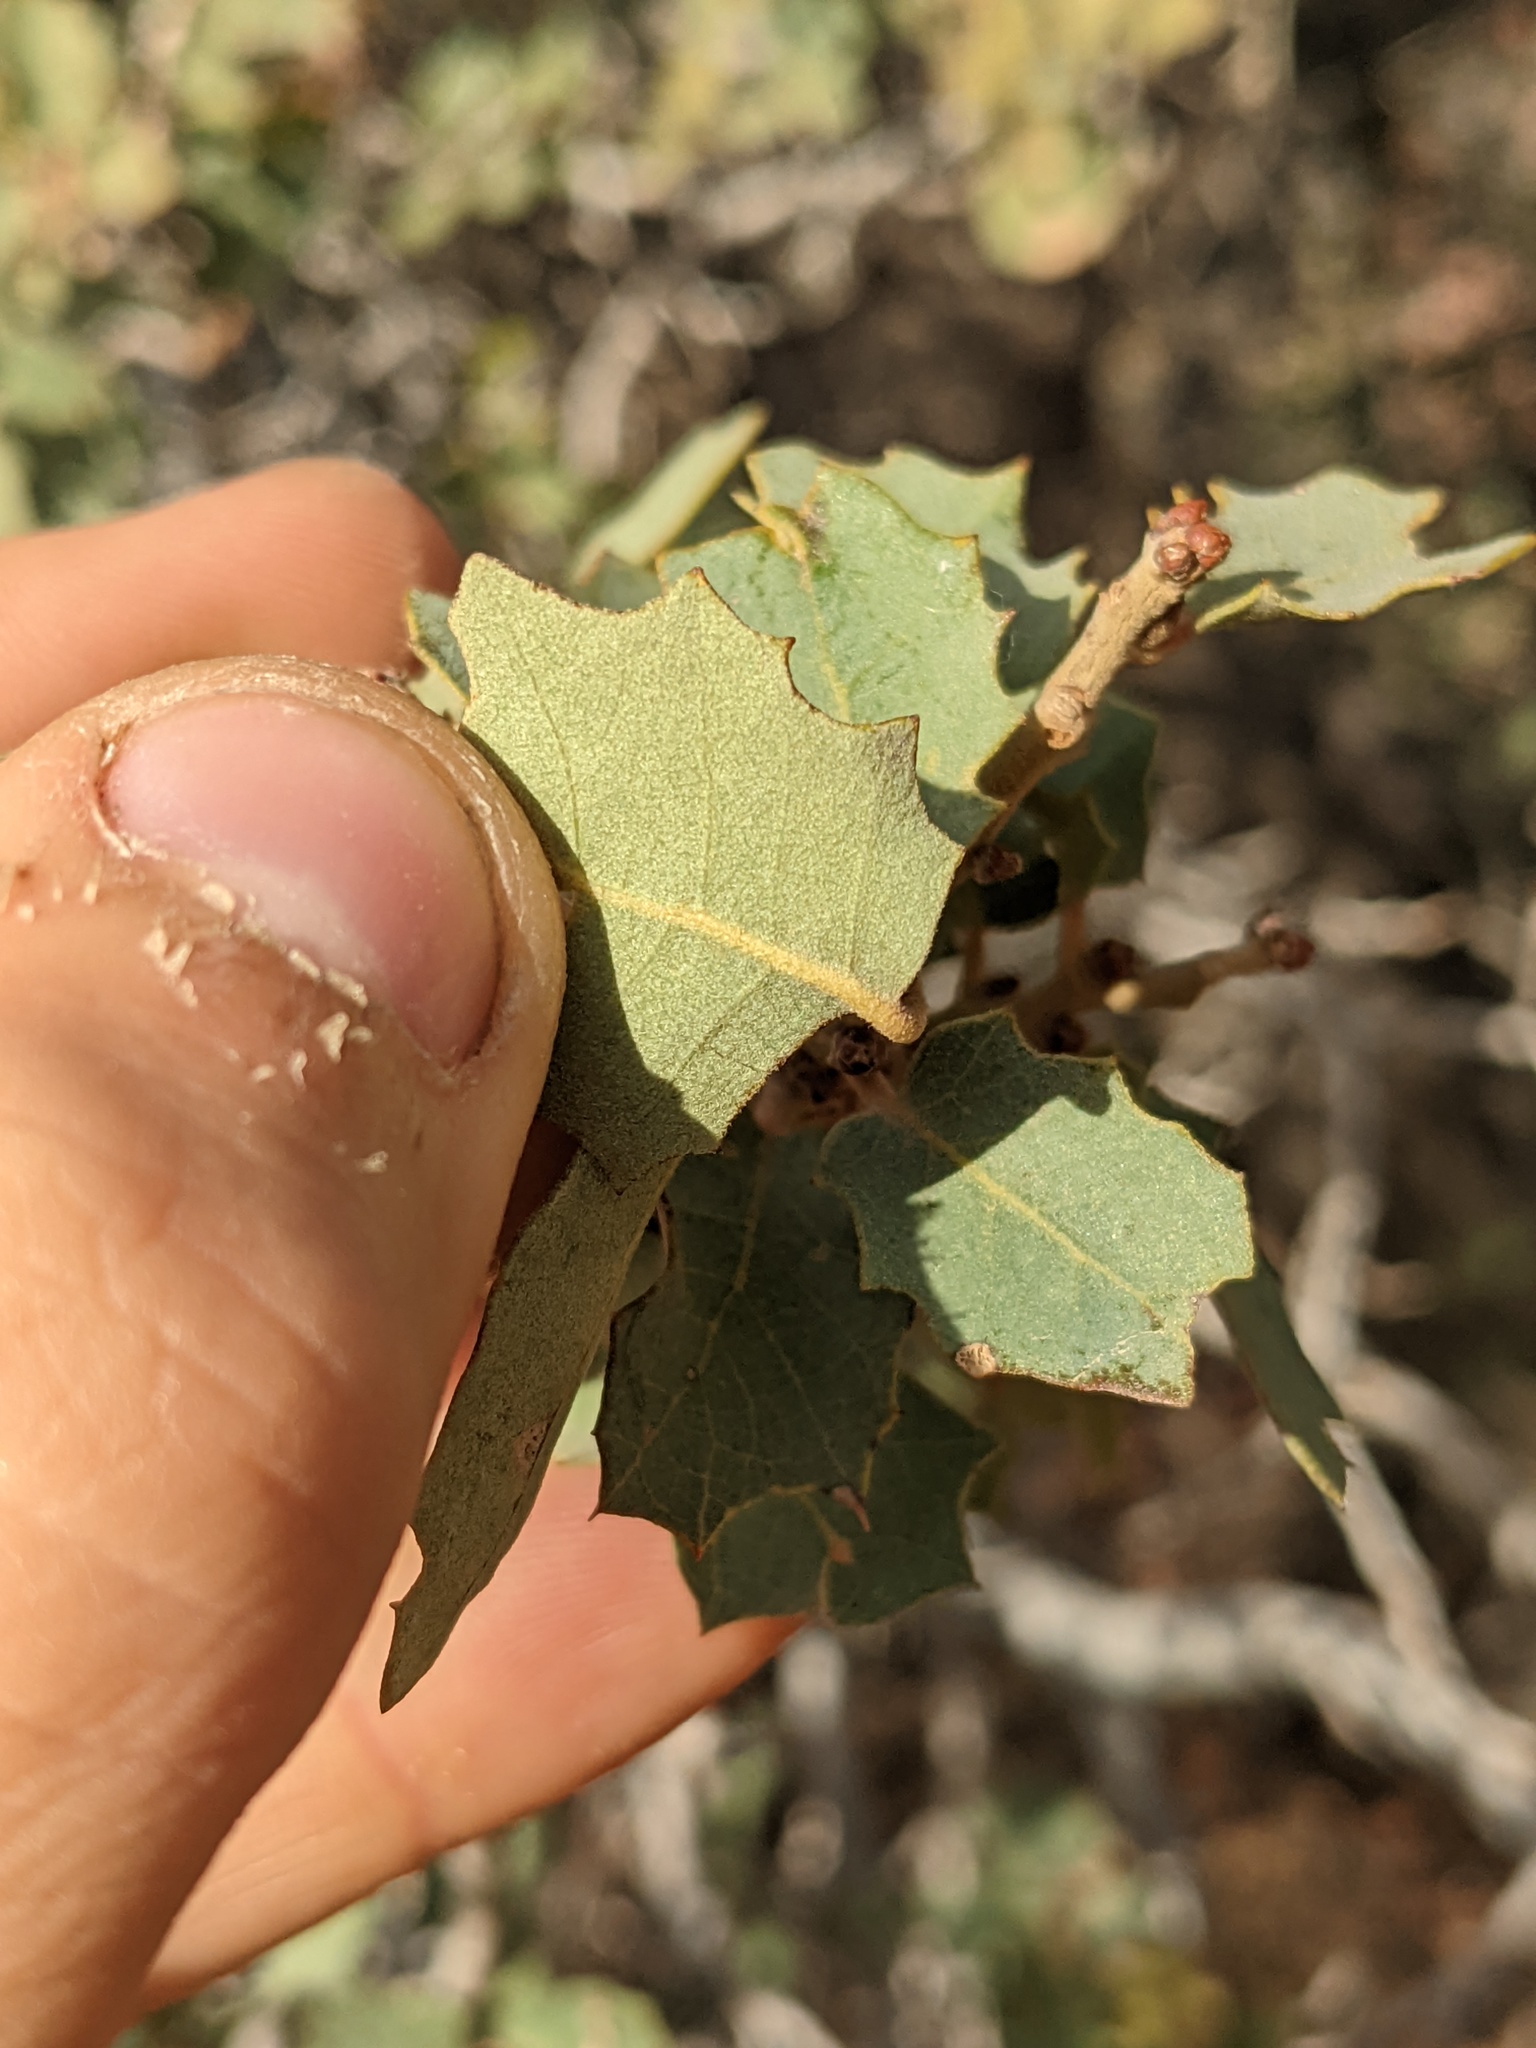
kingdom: Plantae
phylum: Tracheophyta
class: Magnoliopsida
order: Fagales
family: Fagaceae
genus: Quercus
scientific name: Quercus turbinella
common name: Sonoran scrub oak
